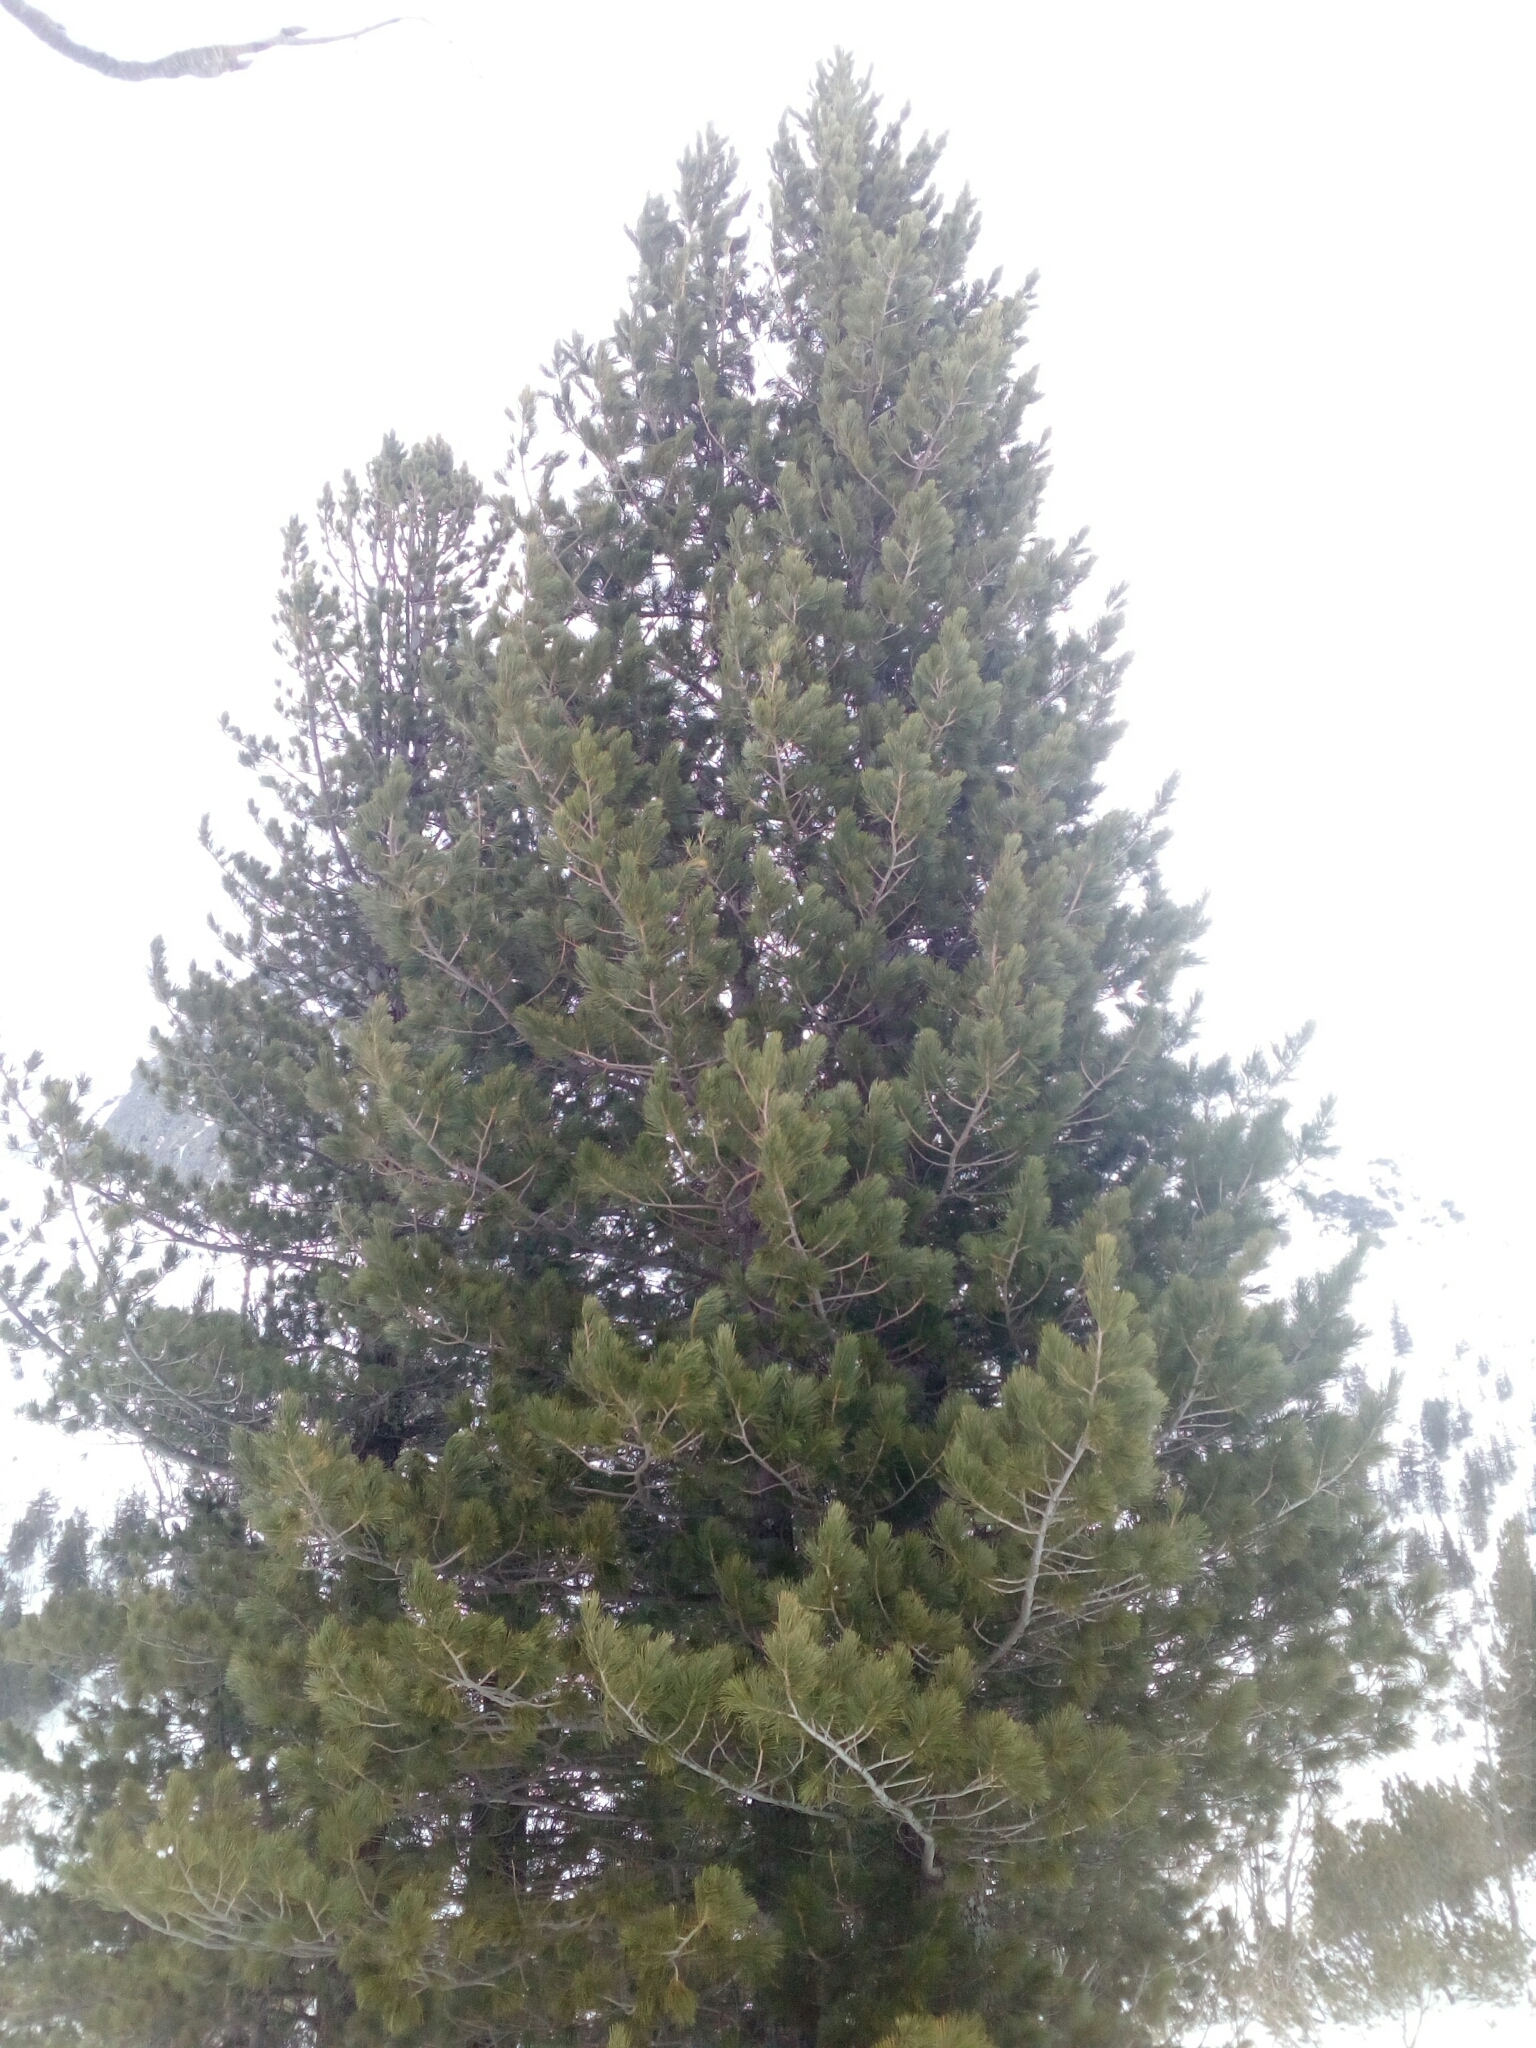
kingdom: Plantae
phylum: Tracheophyta
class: Pinopsida
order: Pinales
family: Pinaceae
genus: Pinus
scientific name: Pinus cembra
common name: Arolla pine
